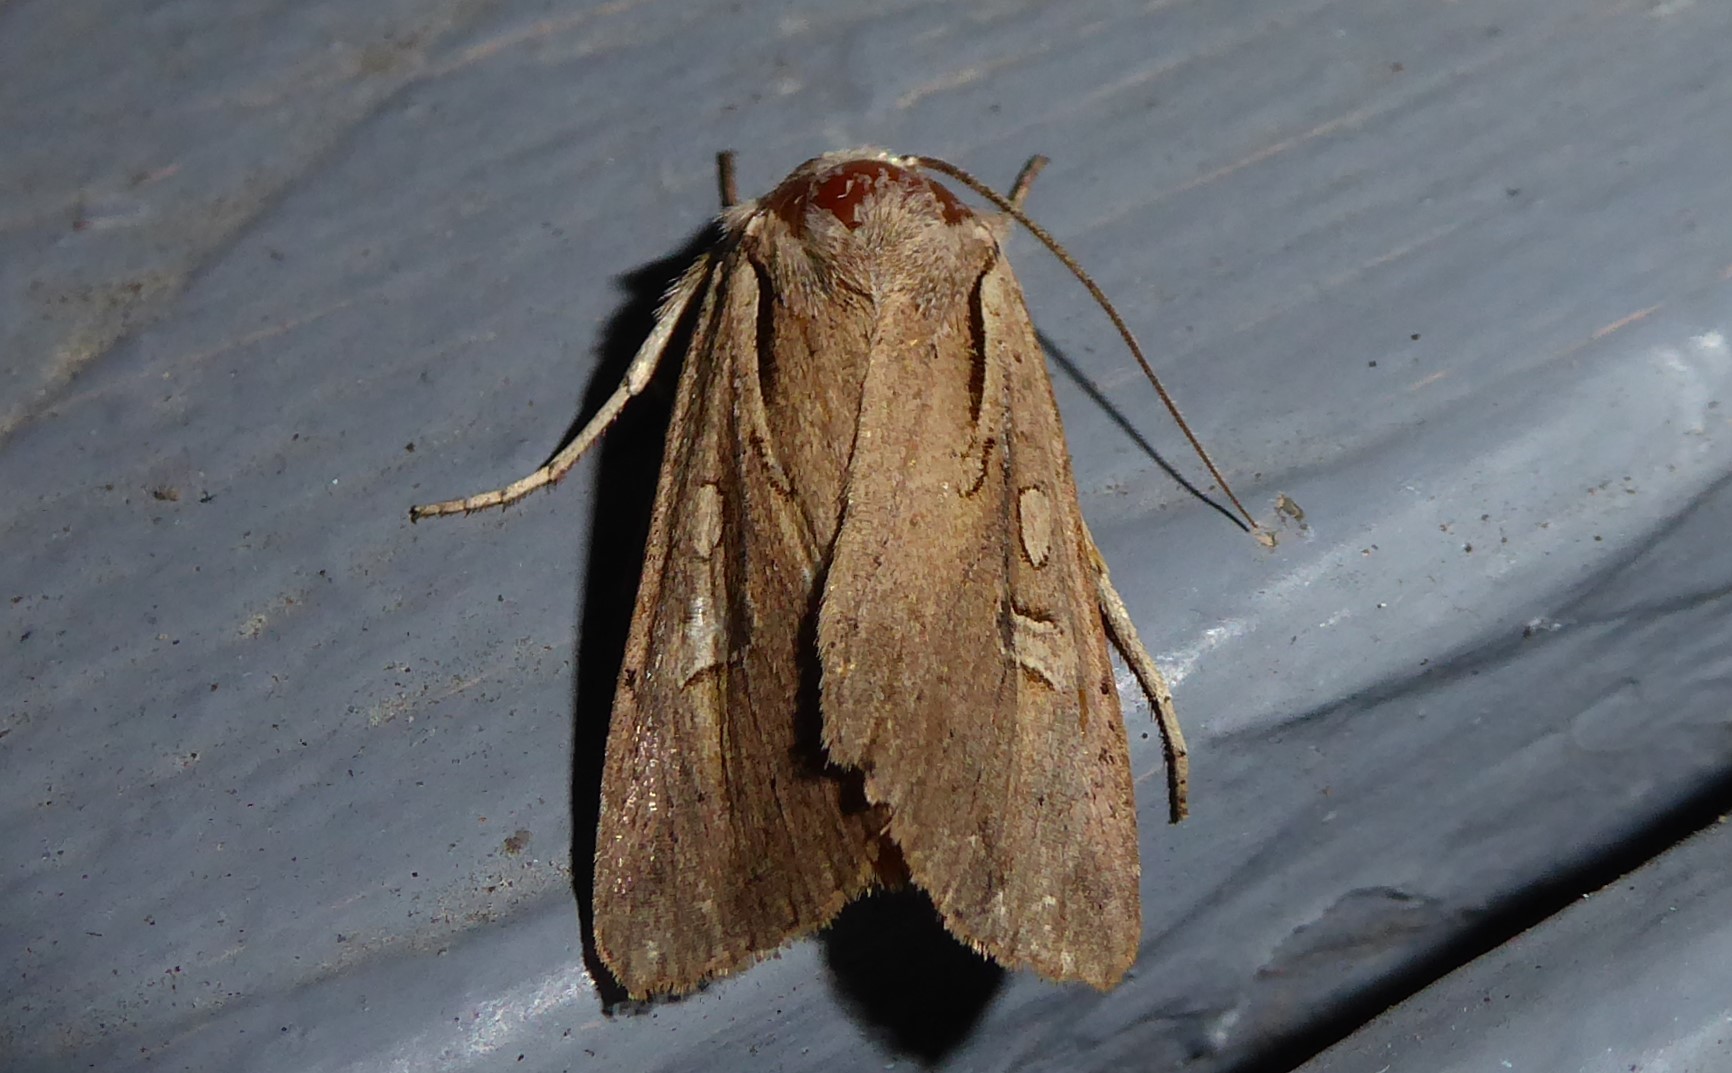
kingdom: Animalia
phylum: Arthropoda
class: Insecta
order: Lepidoptera
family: Noctuidae
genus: Ichneutica
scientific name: Ichneutica atristriga
